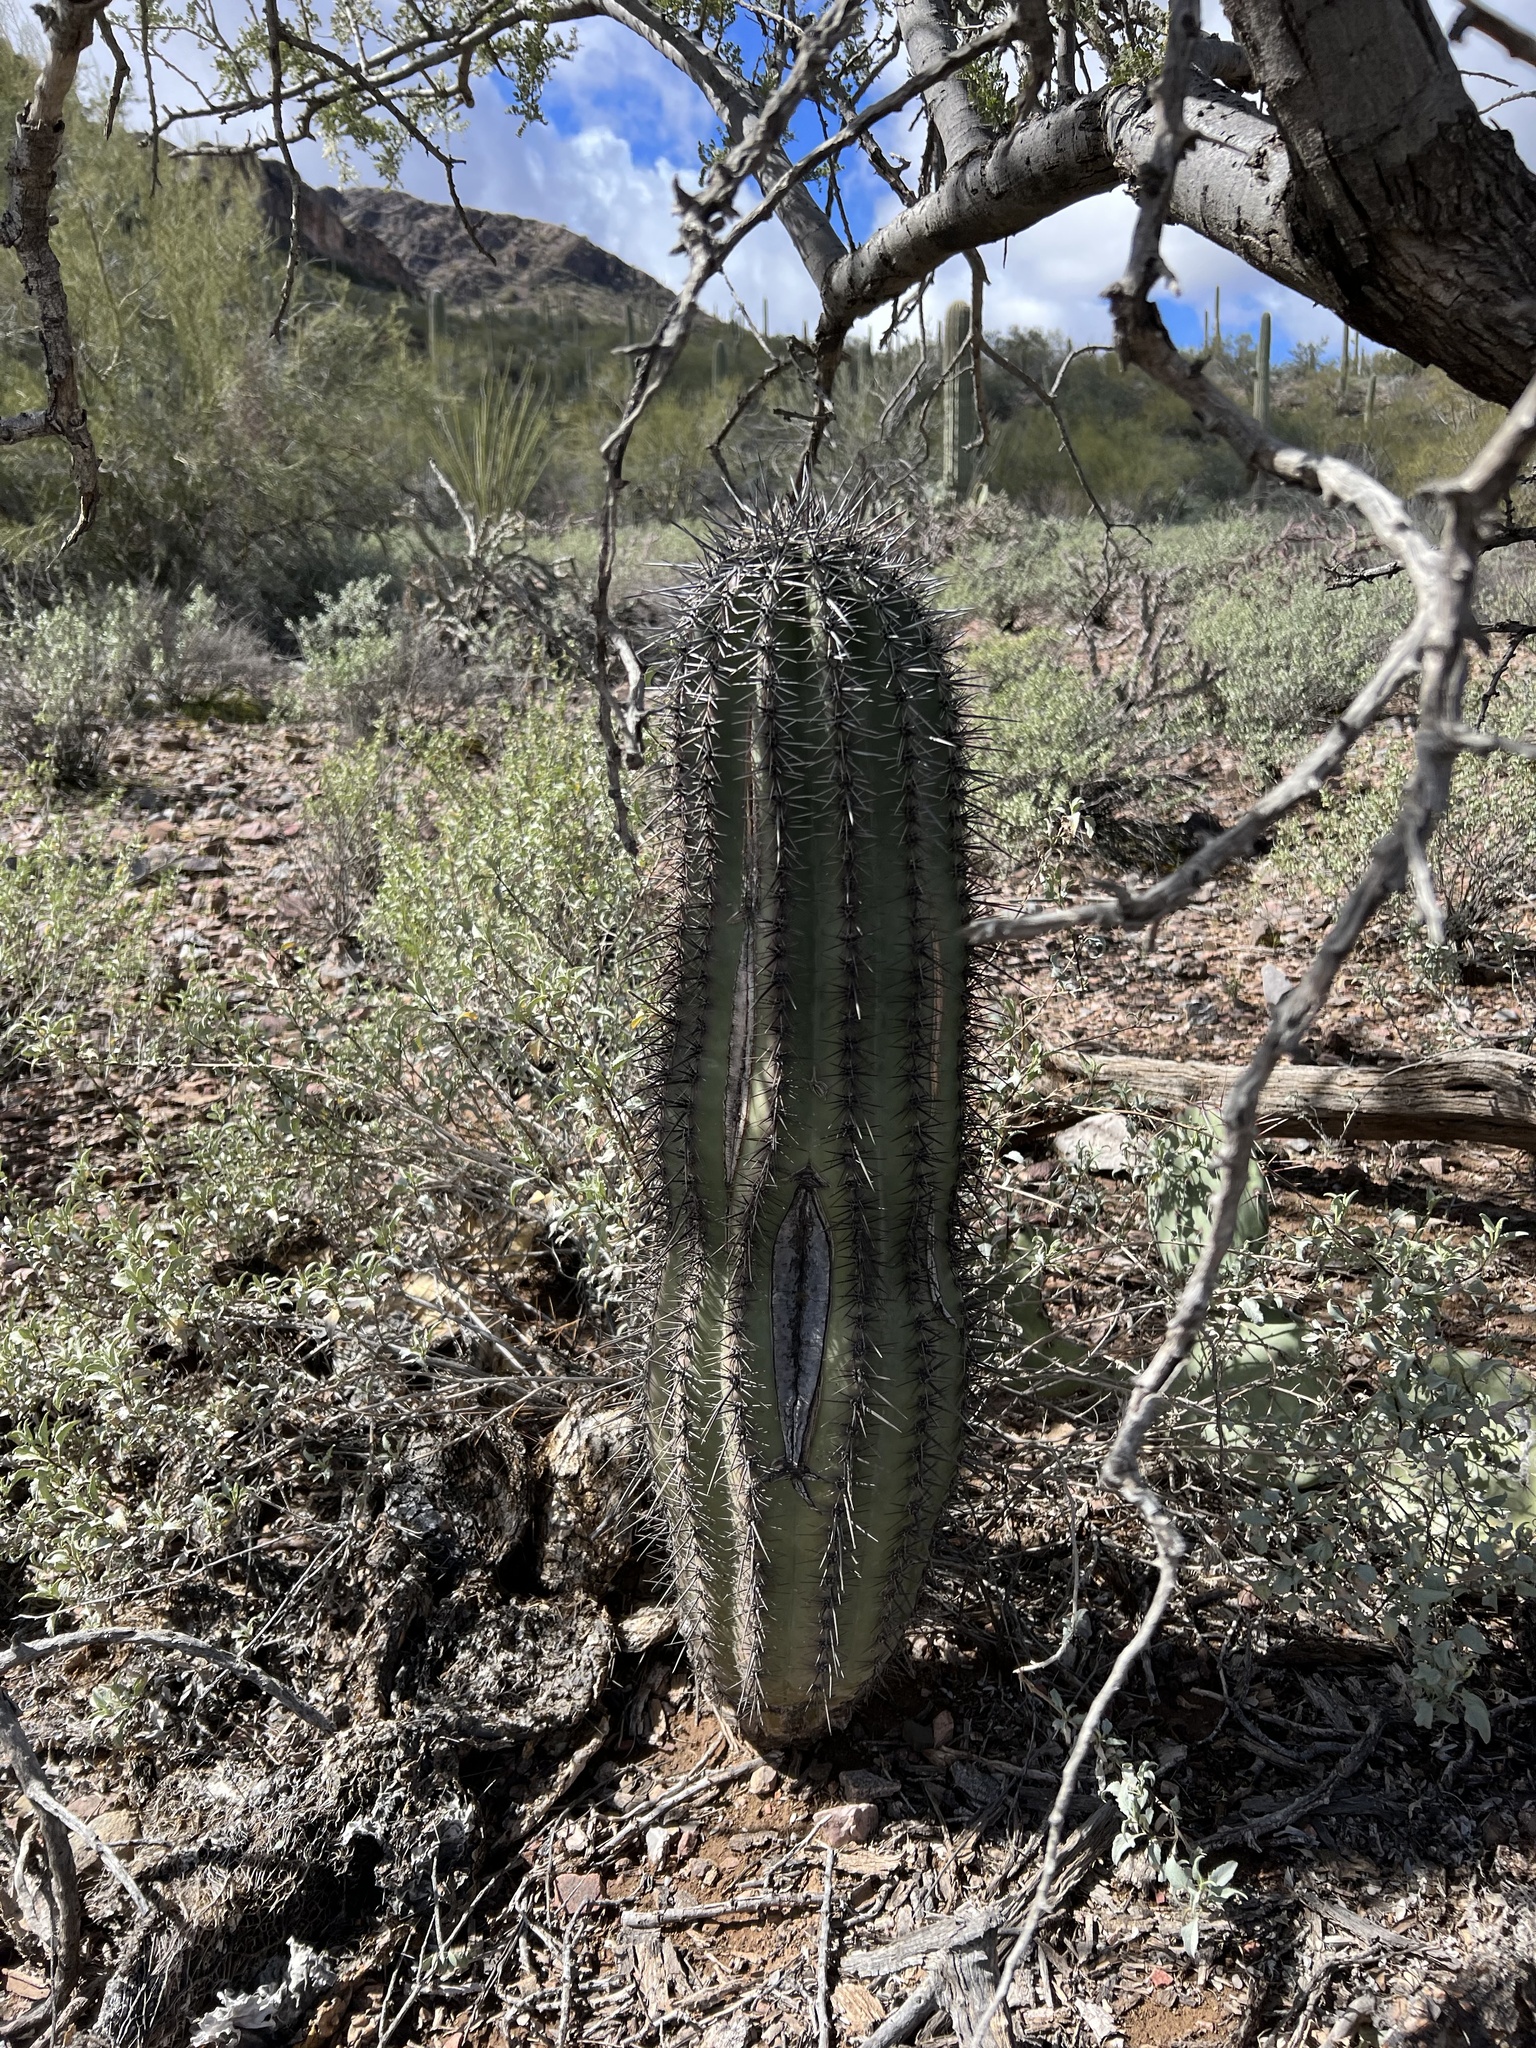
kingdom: Plantae
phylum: Tracheophyta
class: Magnoliopsida
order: Caryophyllales
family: Cactaceae
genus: Carnegiea
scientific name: Carnegiea gigantea
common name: Saguaro
